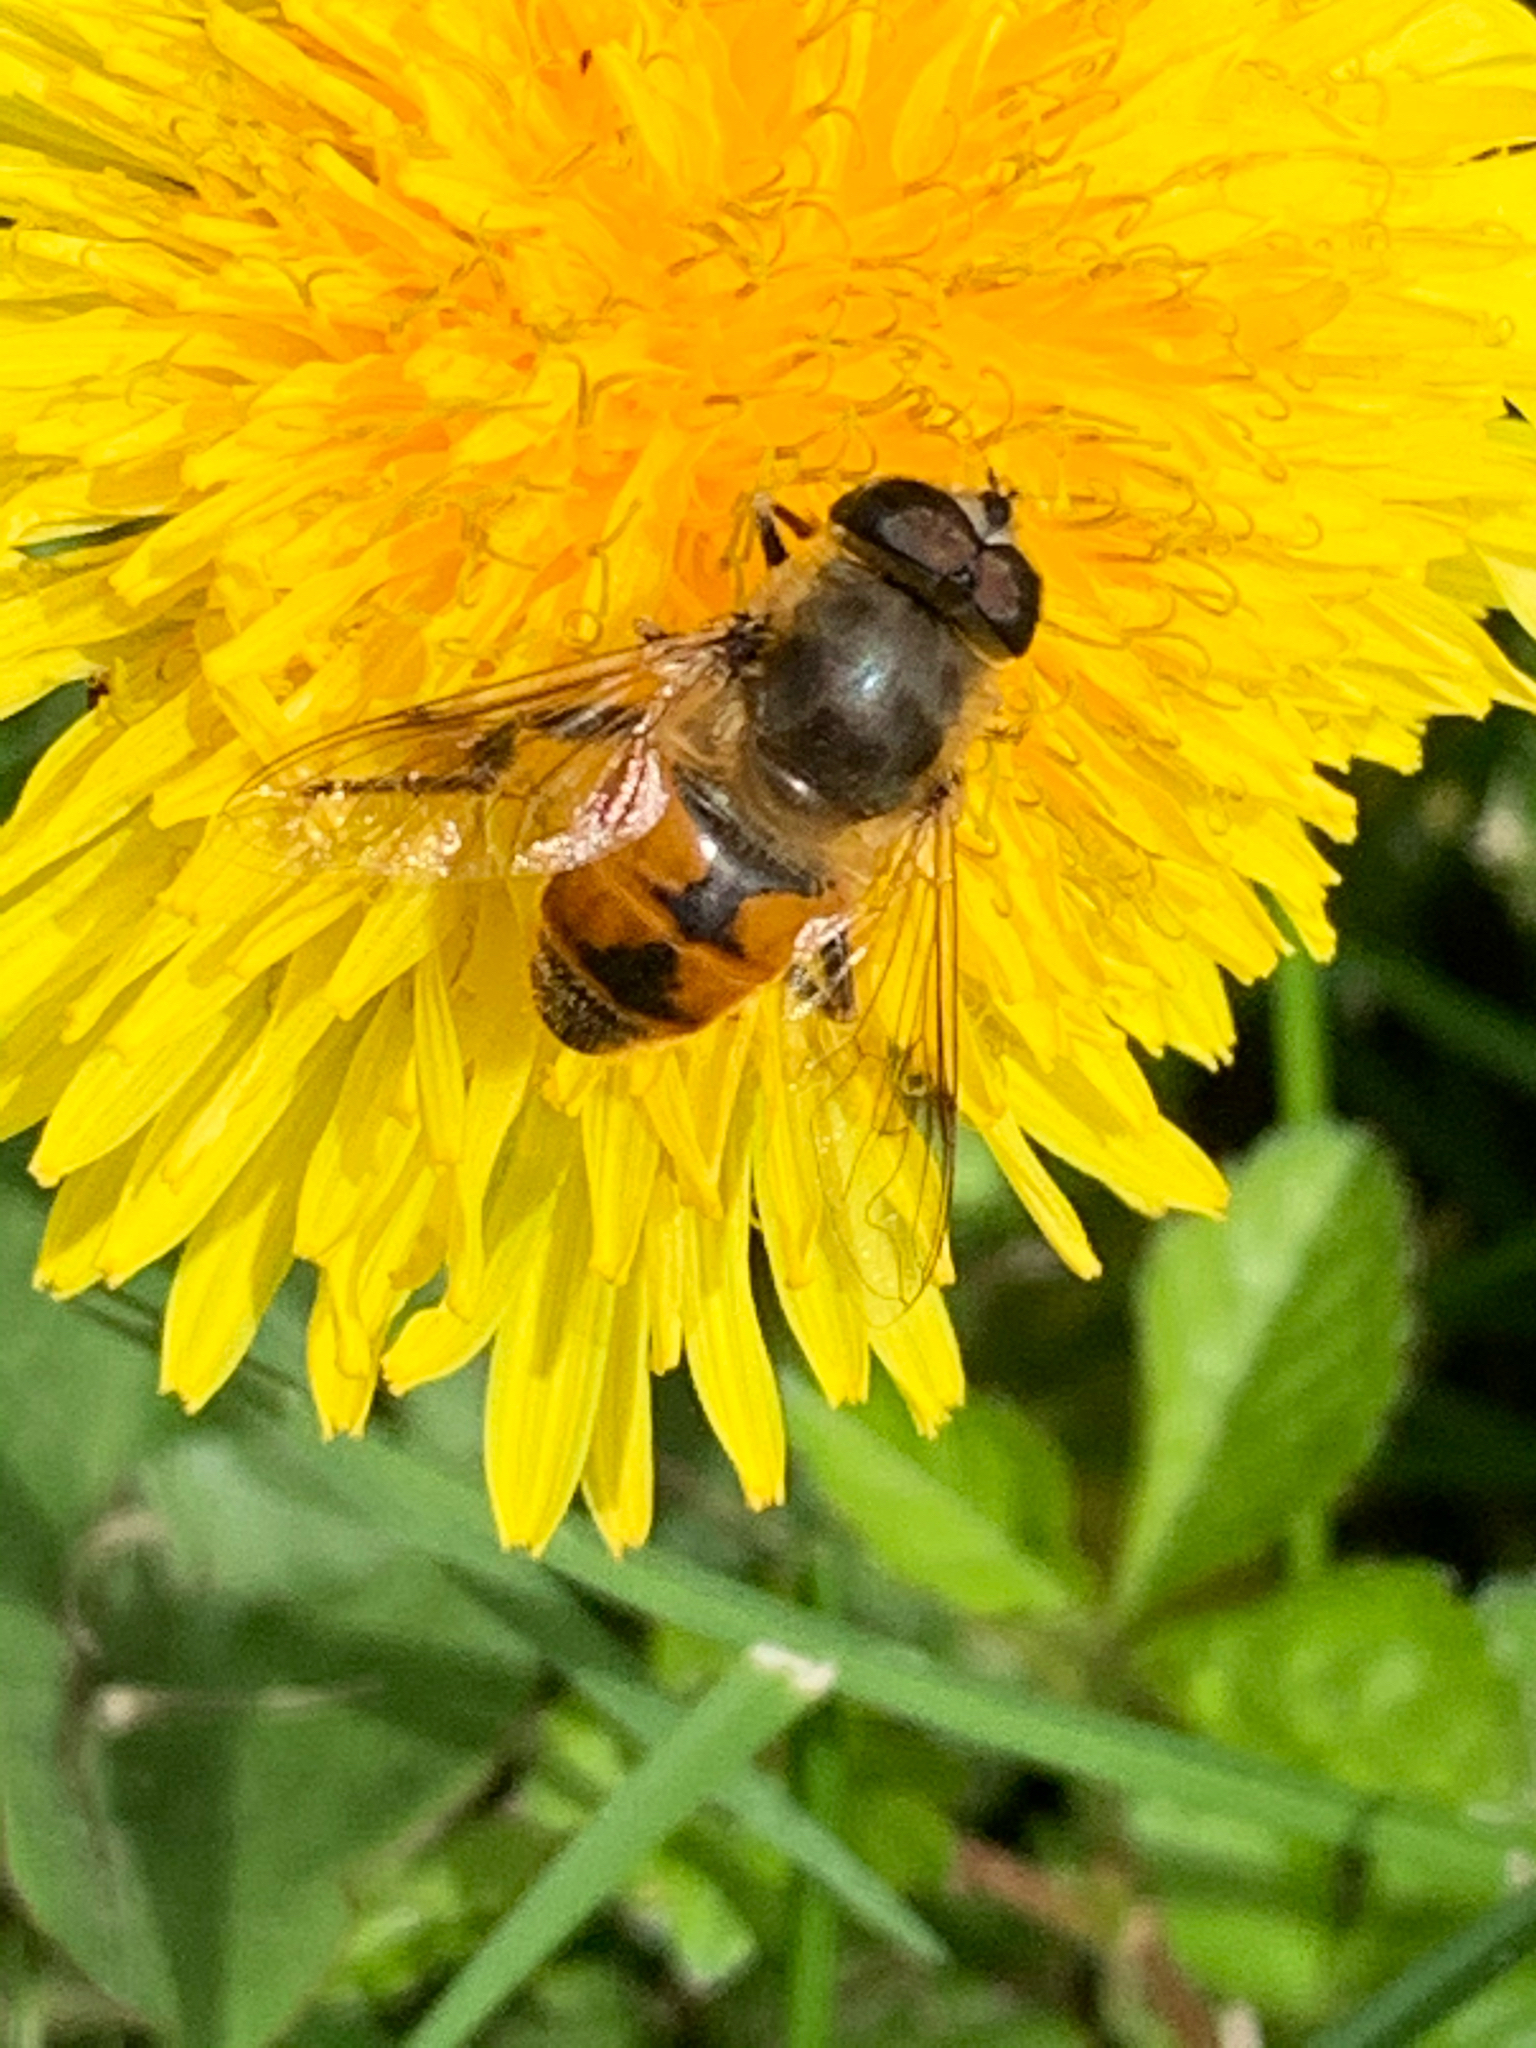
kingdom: Animalia
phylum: Arthropoda
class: Insecta
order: Diptera
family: Syrphidae
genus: Eristalis
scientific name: Eristalis tenax
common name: Drone fly
